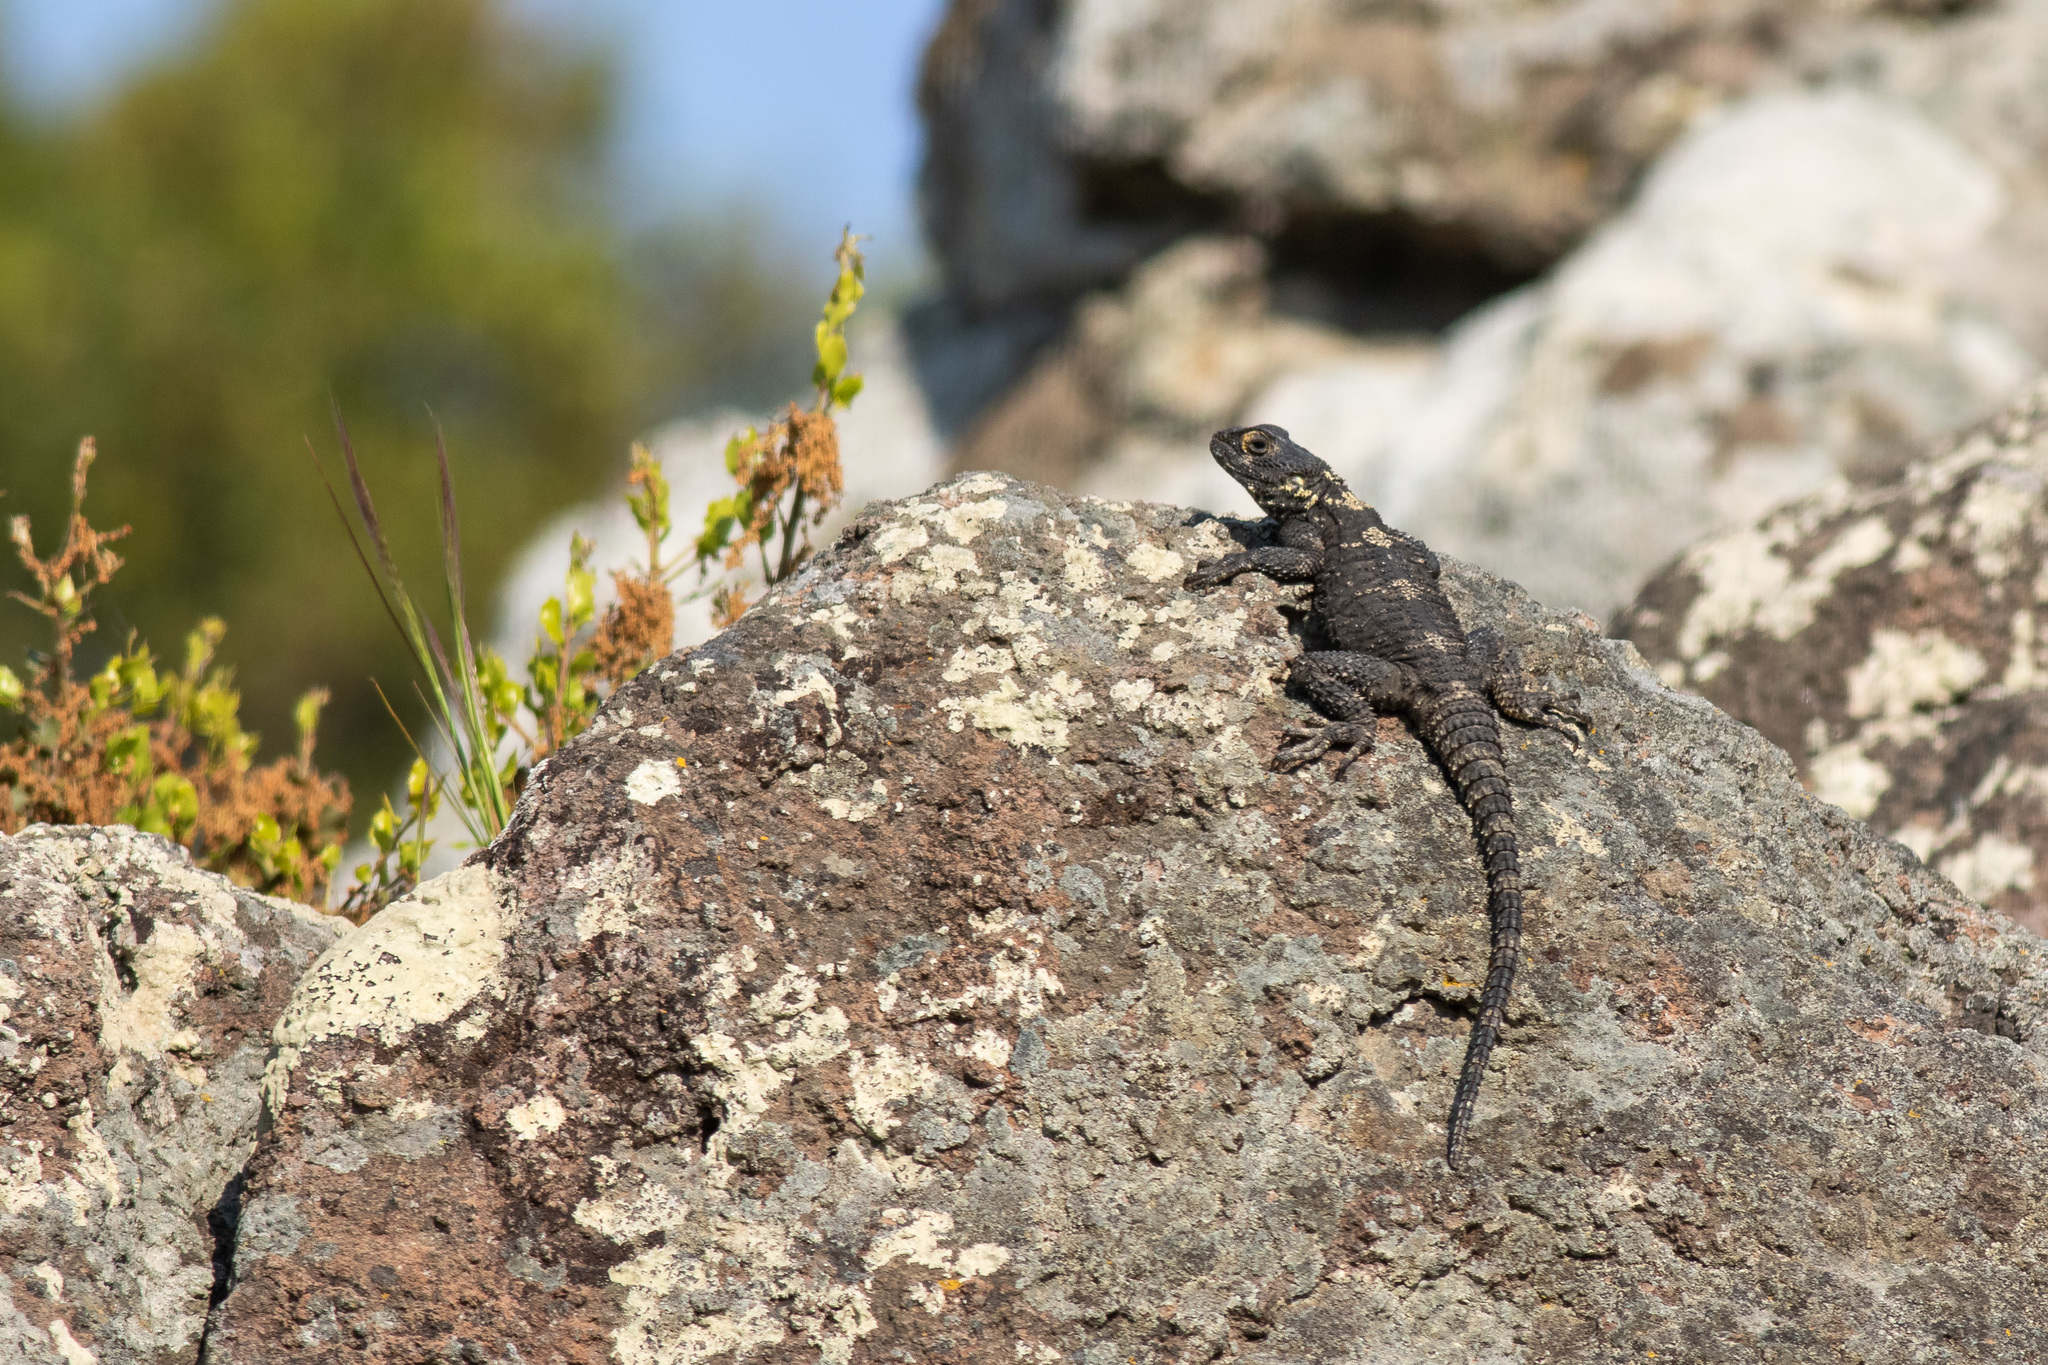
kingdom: Animalia
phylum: Chordata
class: Squamata
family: Agamidae
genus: Stellagama
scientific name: Stellagama stellio
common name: Starred agama
